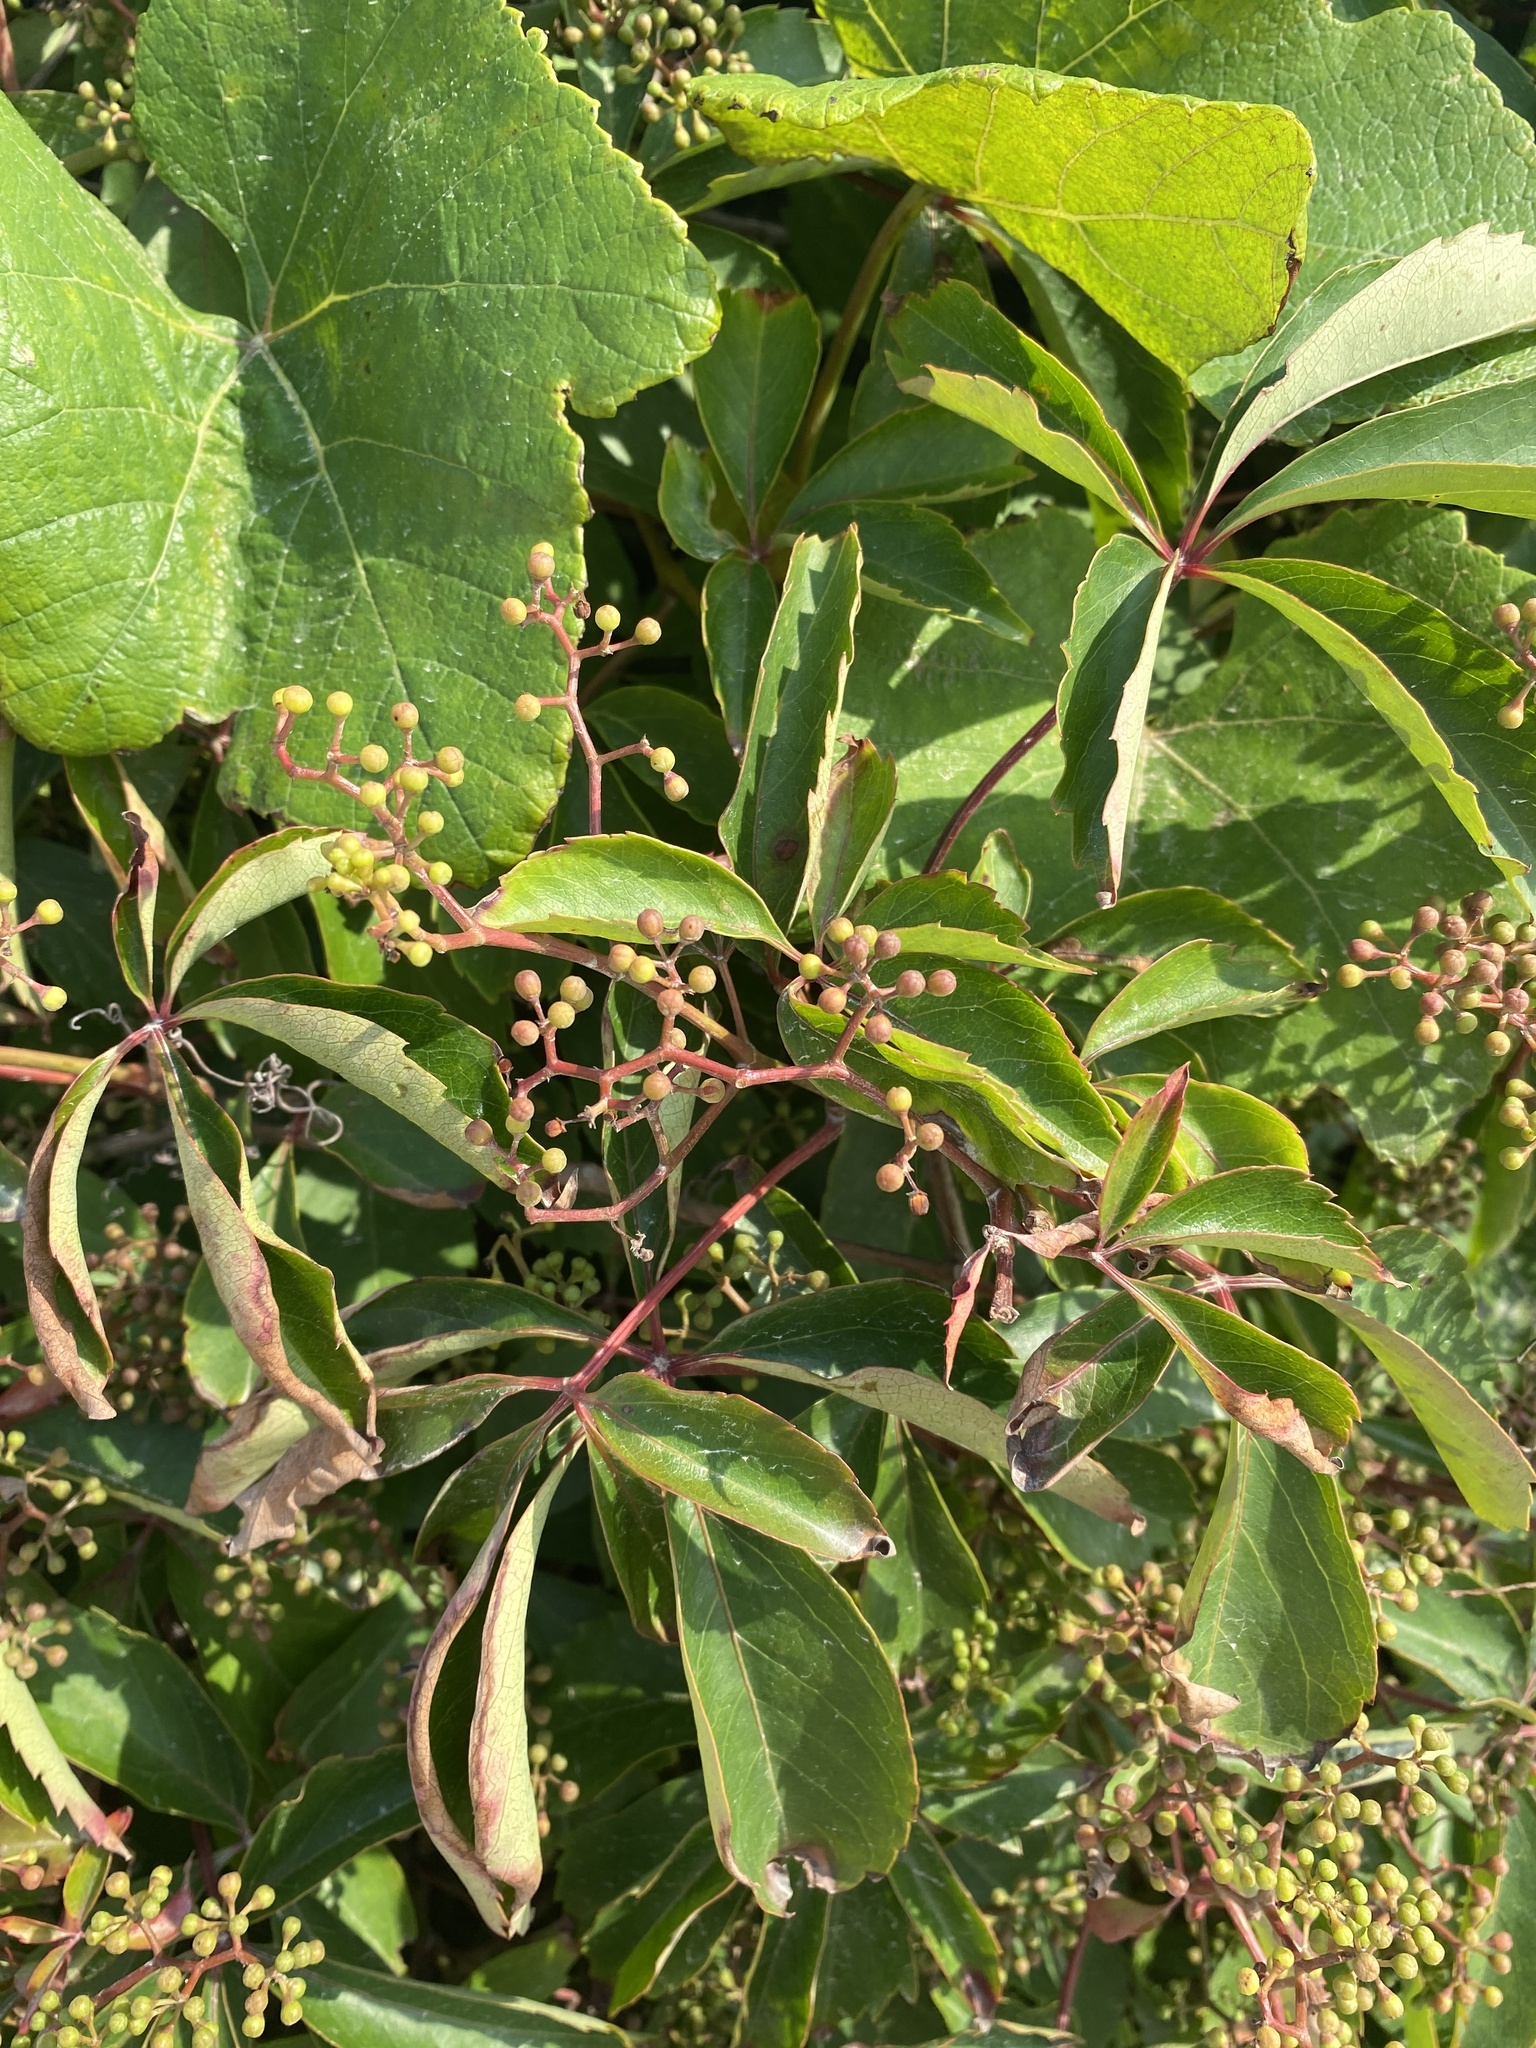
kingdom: Plantae
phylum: Tracheophyta
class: Magnoliopsida
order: Vitales
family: Vitaceae
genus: Parthenocissus
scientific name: Parthenocissus quinquefolia
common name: Virginia-creeper
